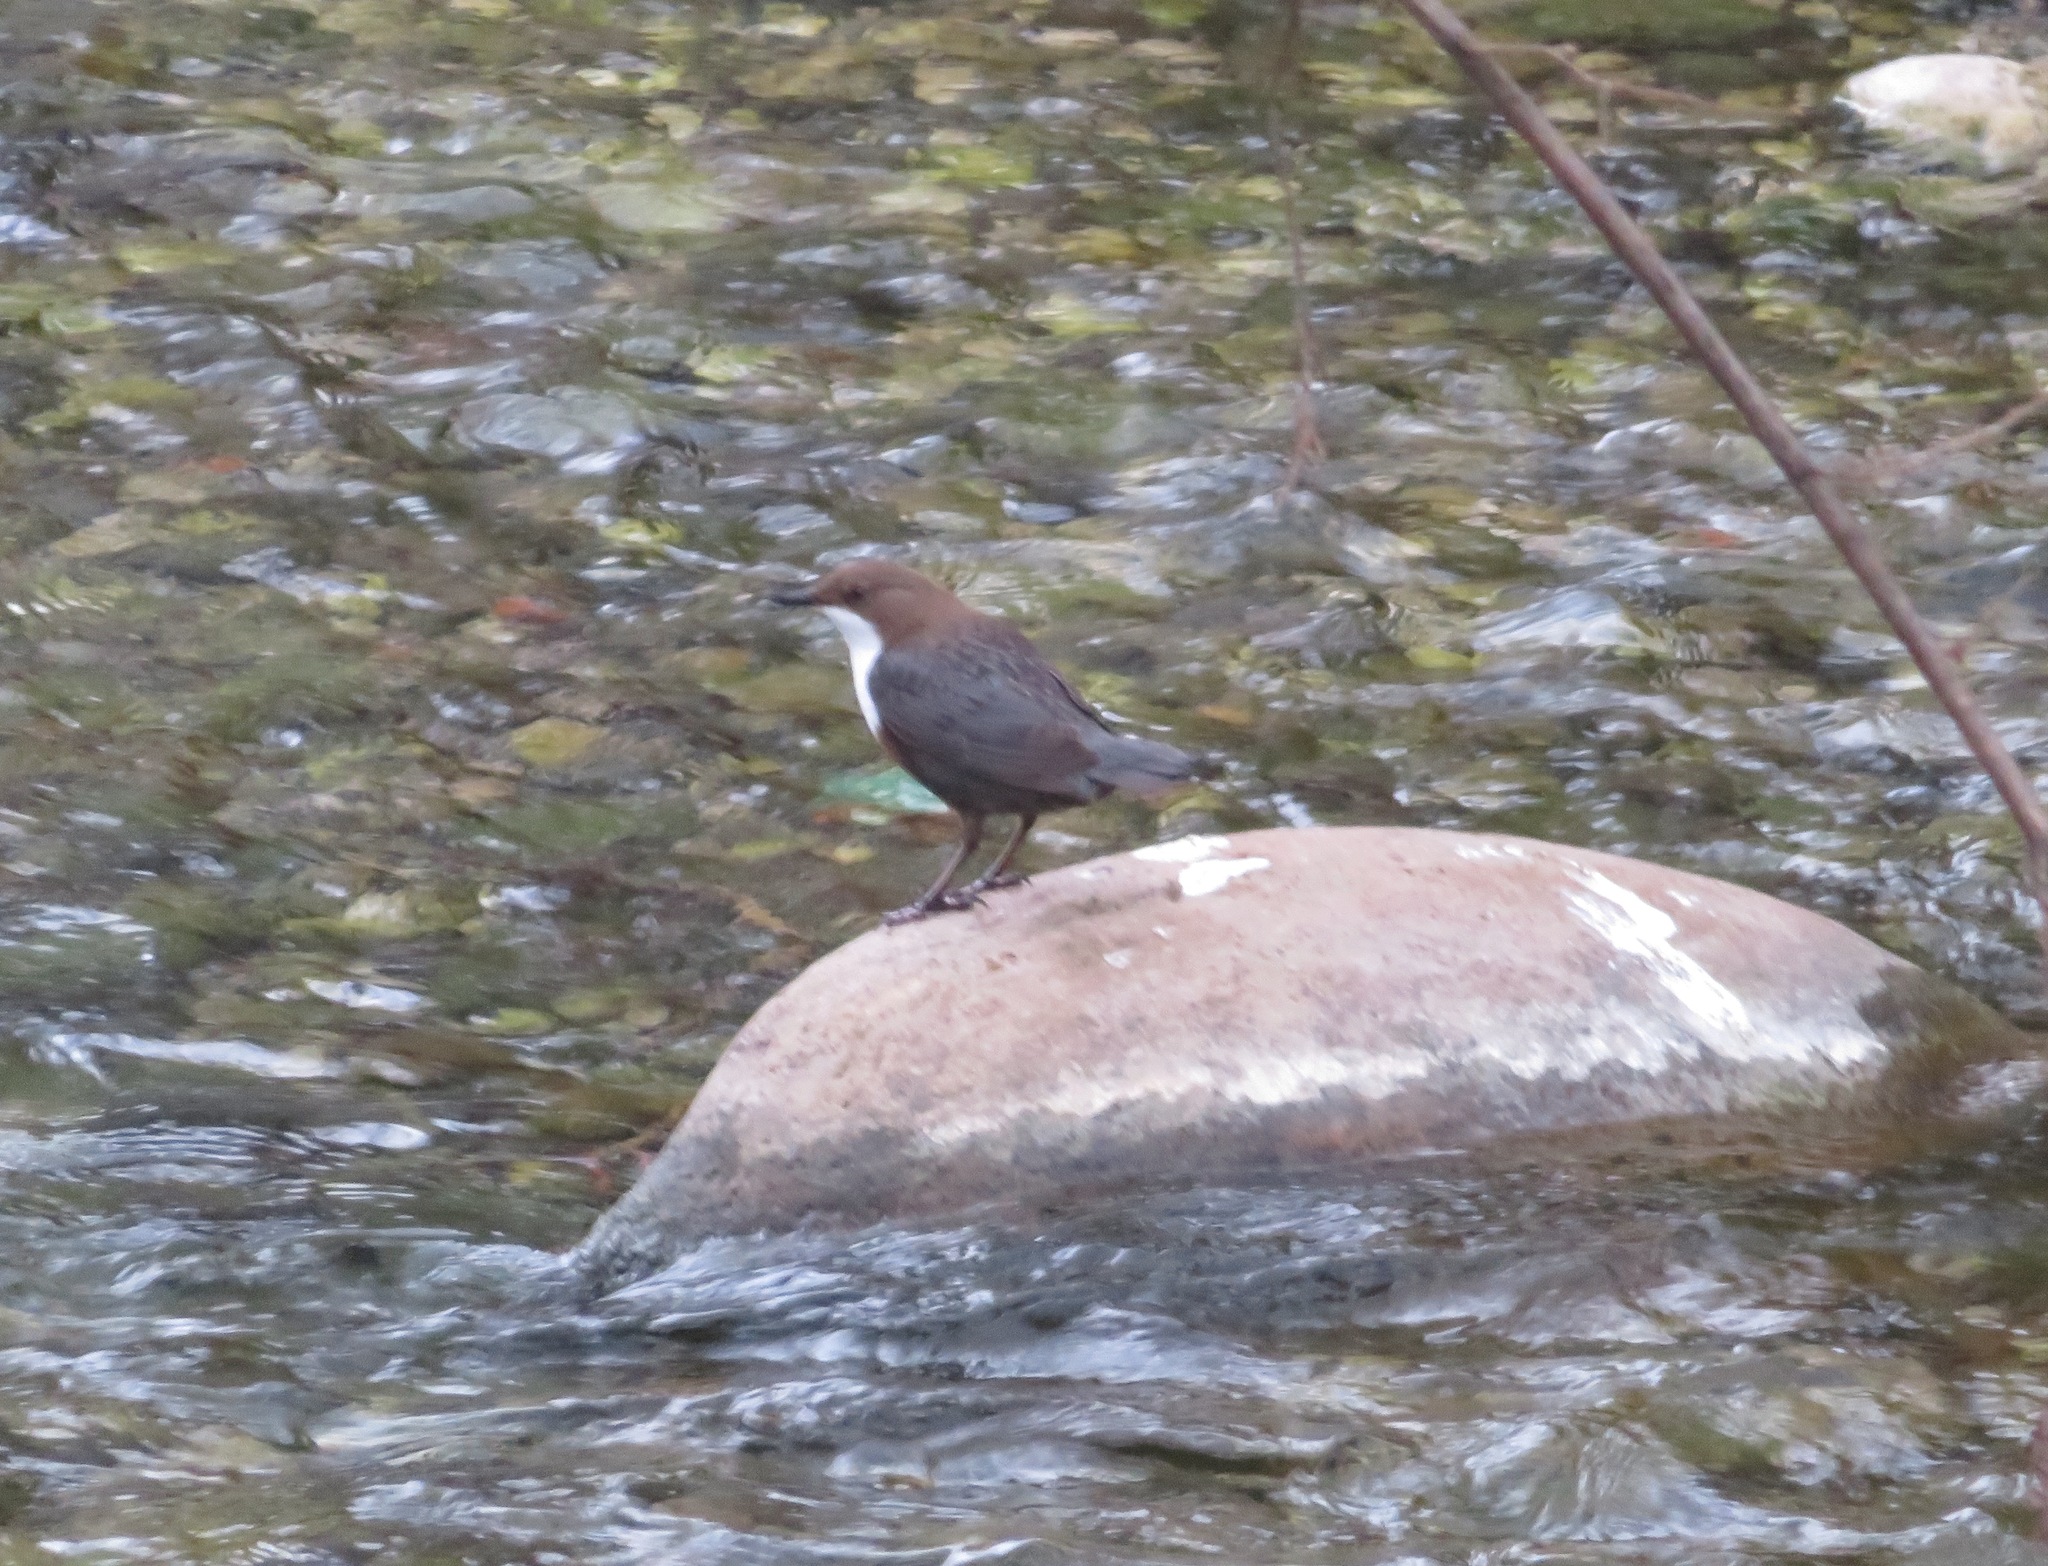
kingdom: Animalia
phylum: Chordata
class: Aves
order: Passeriformes
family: Cinclidae
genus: Cinclus
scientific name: Cinclus cinclus
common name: White-throated dipper
